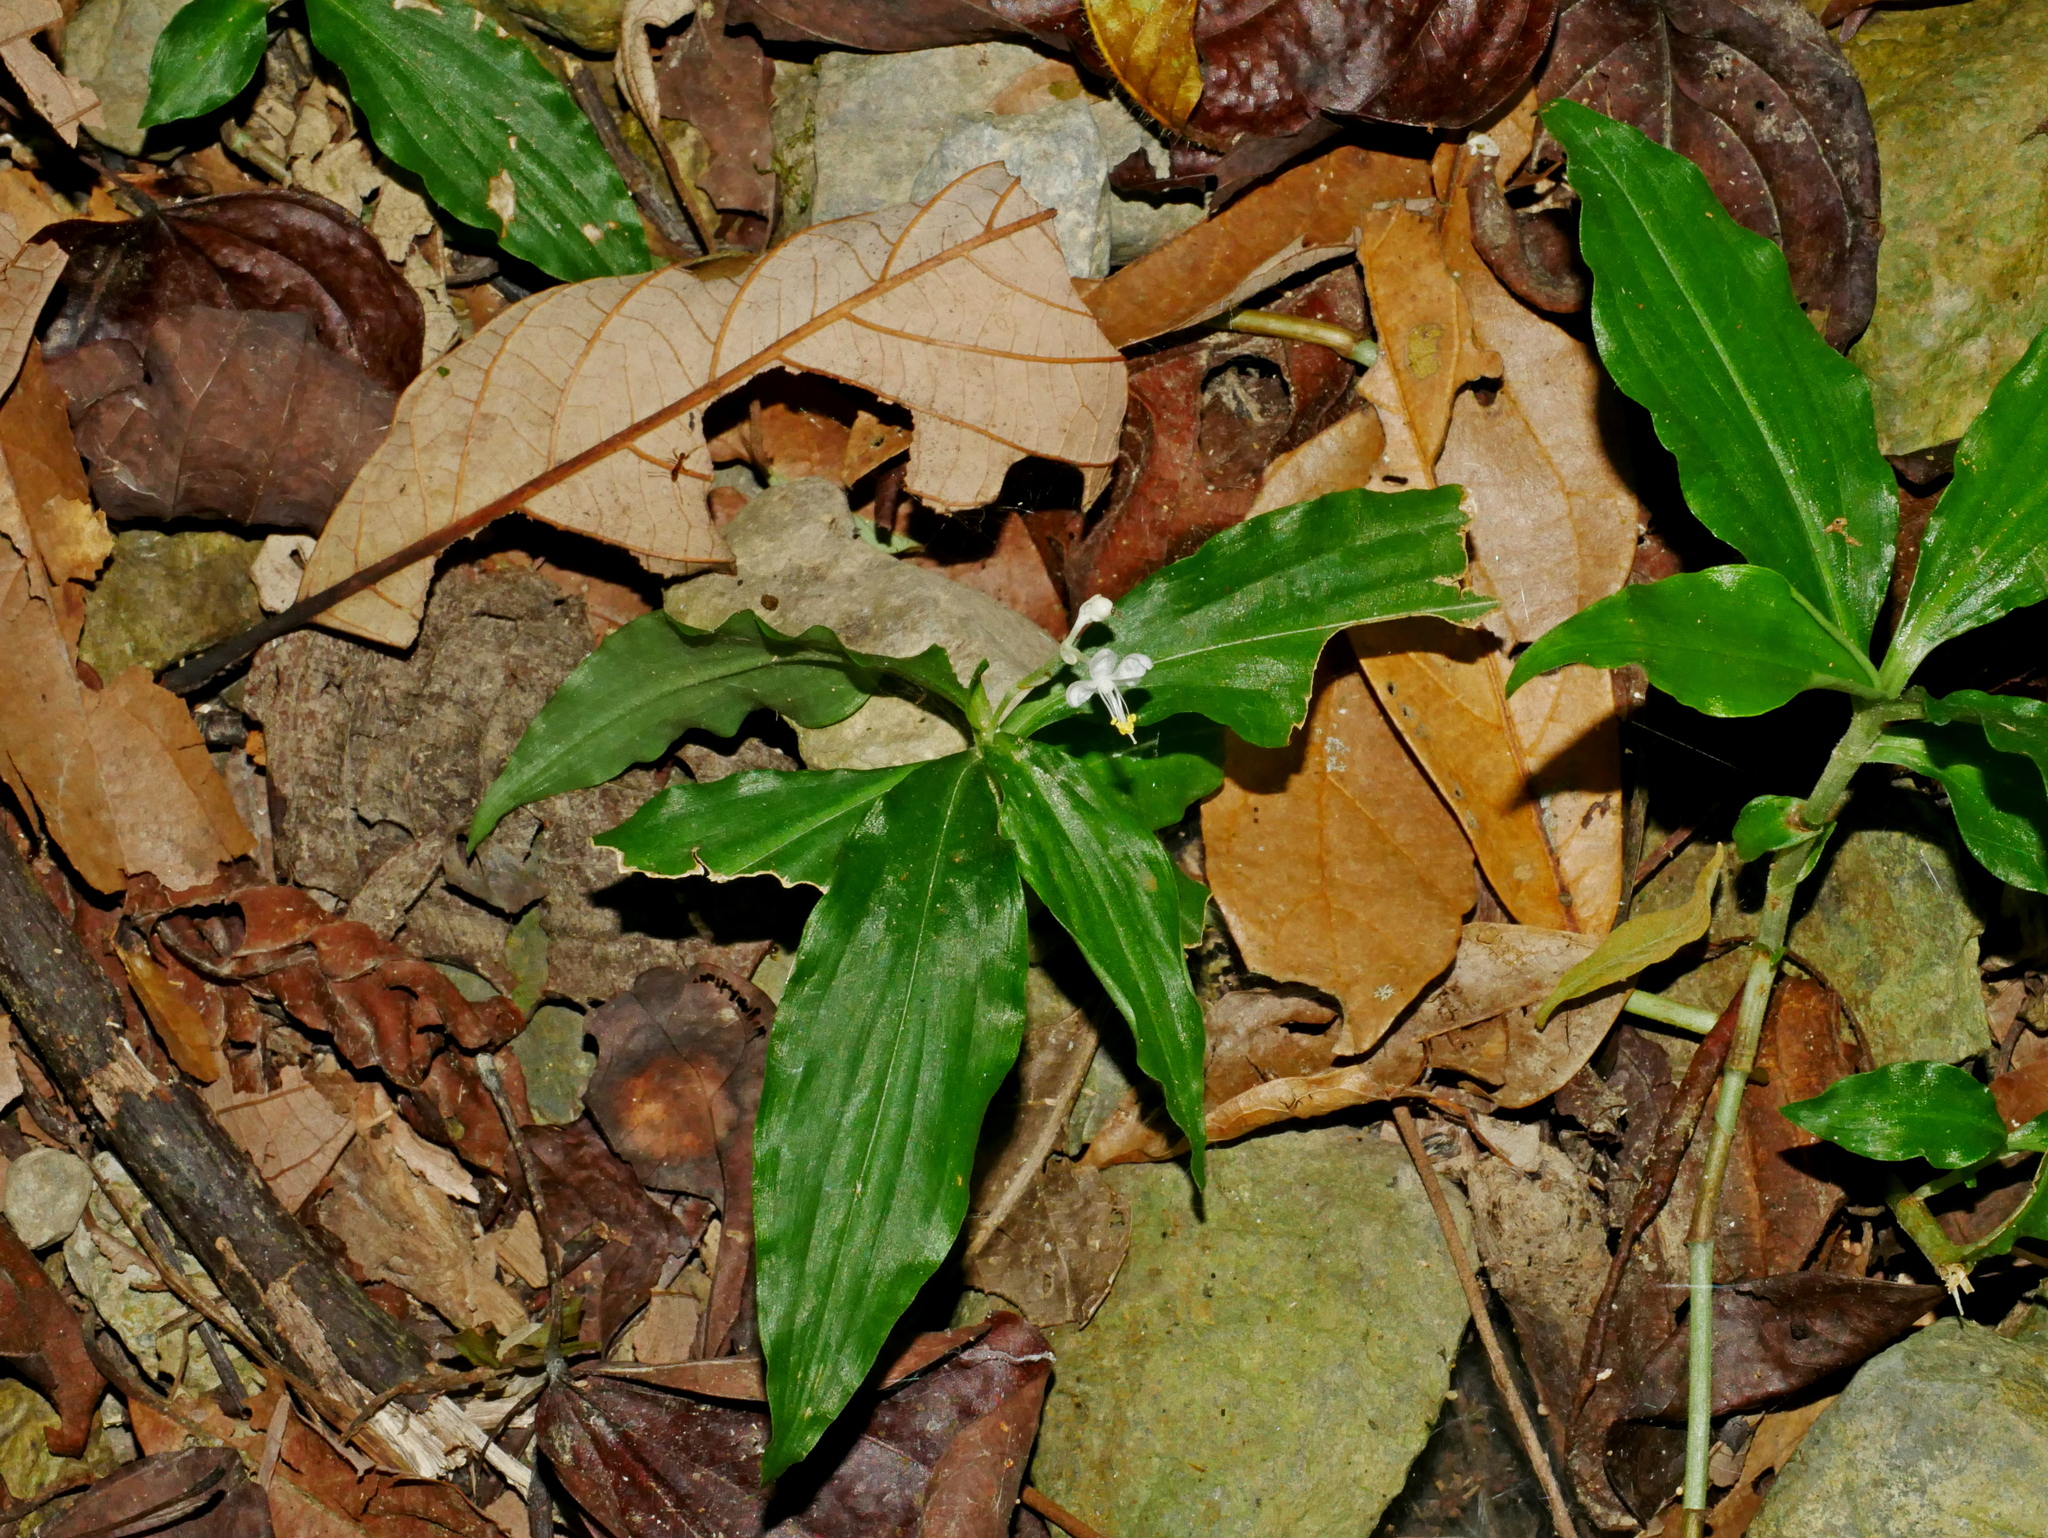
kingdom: Plantae
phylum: Tracheophyta
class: Liliopsida
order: Commelinales
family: Commelinaceae
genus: Pollia
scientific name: Pollia miranda
